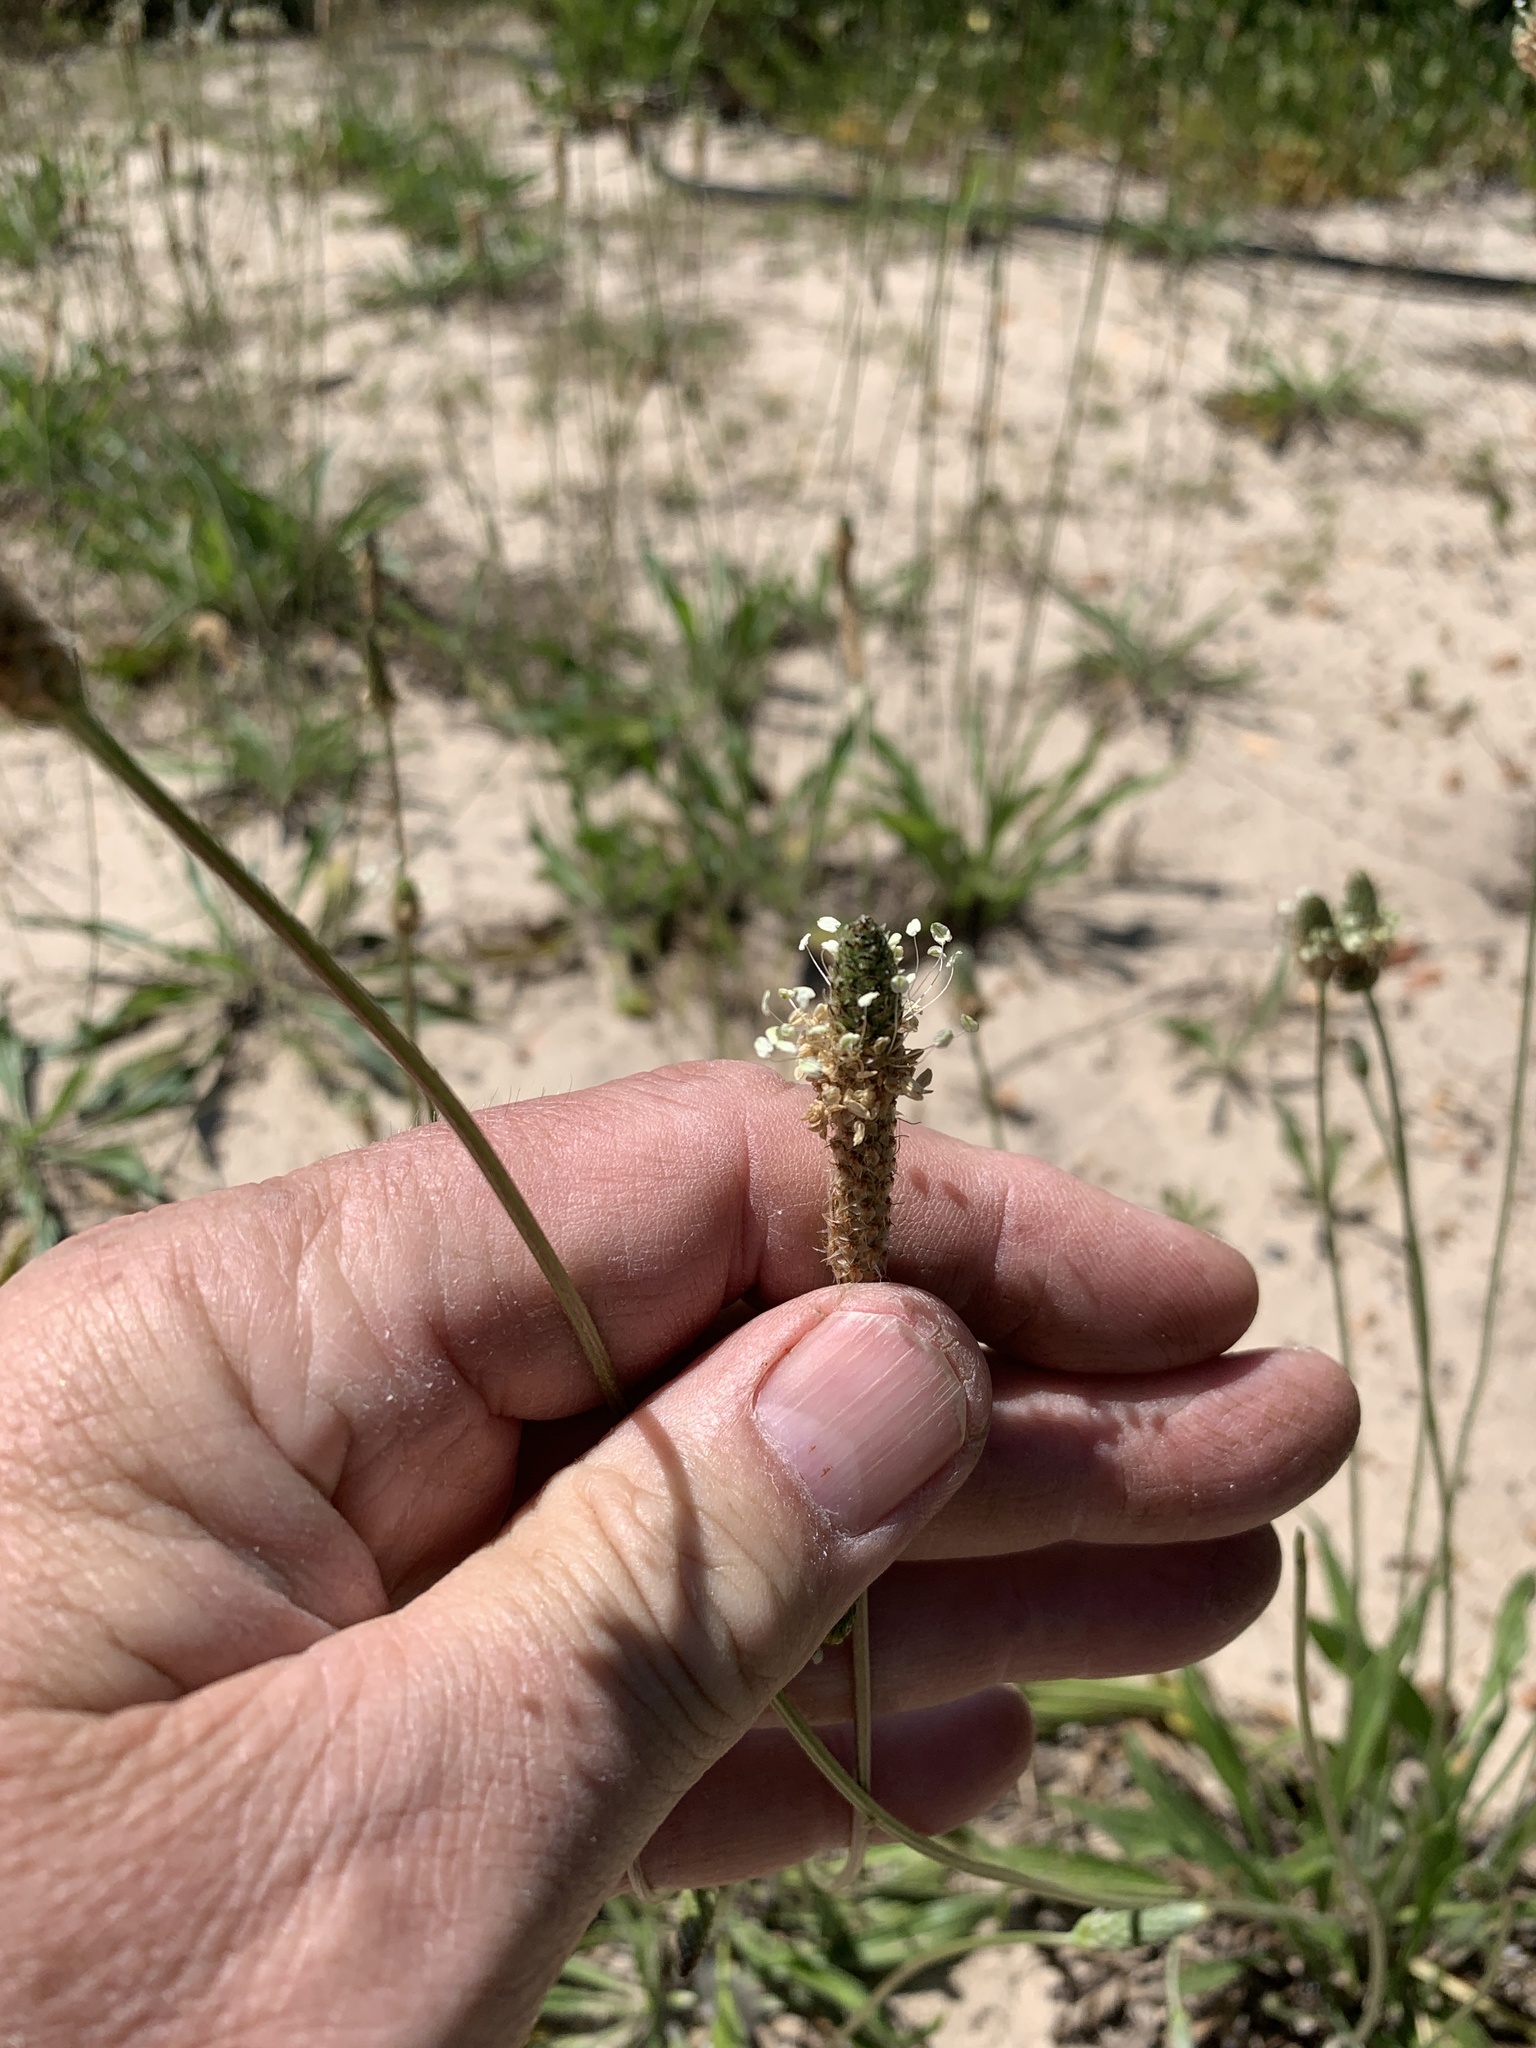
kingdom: Plantae
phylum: Tracheophyta
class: Magnoliopsida
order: Lamiales
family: Plantaginaceae
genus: Plantago
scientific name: Plantago lanceolata
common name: Ribwort plantain
